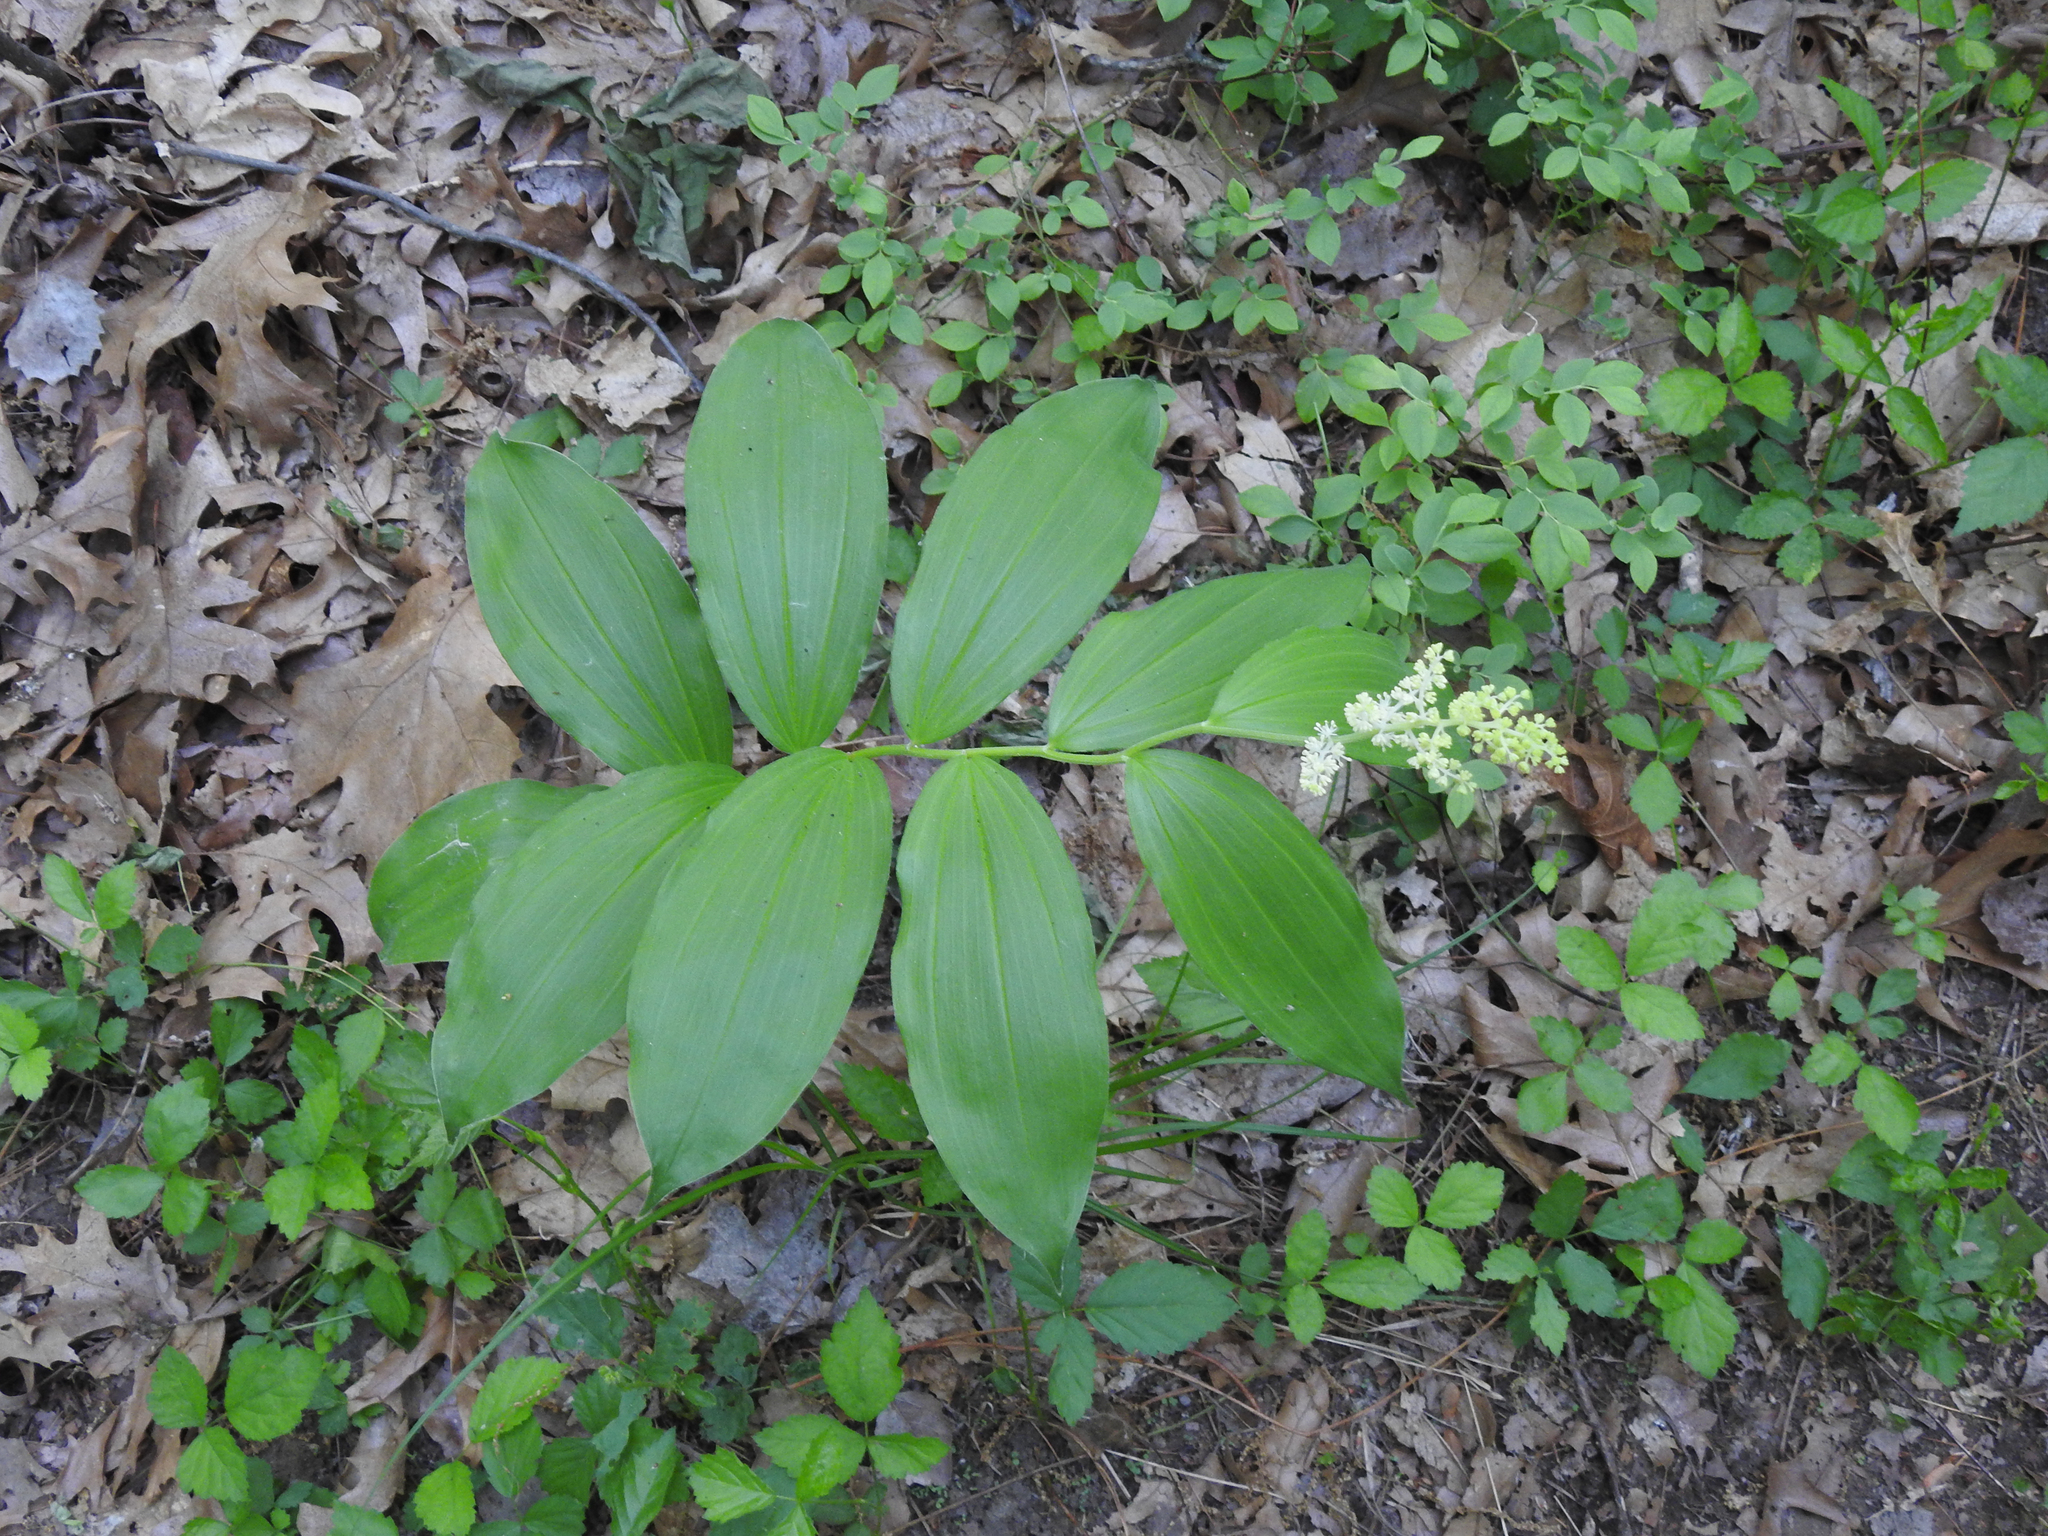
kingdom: Plantae
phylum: Tracheophyta
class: Liliopsida
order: Asparagales
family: Asparagaceae
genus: Maianthemum
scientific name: Maianthemum racemosum
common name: False spikenard
